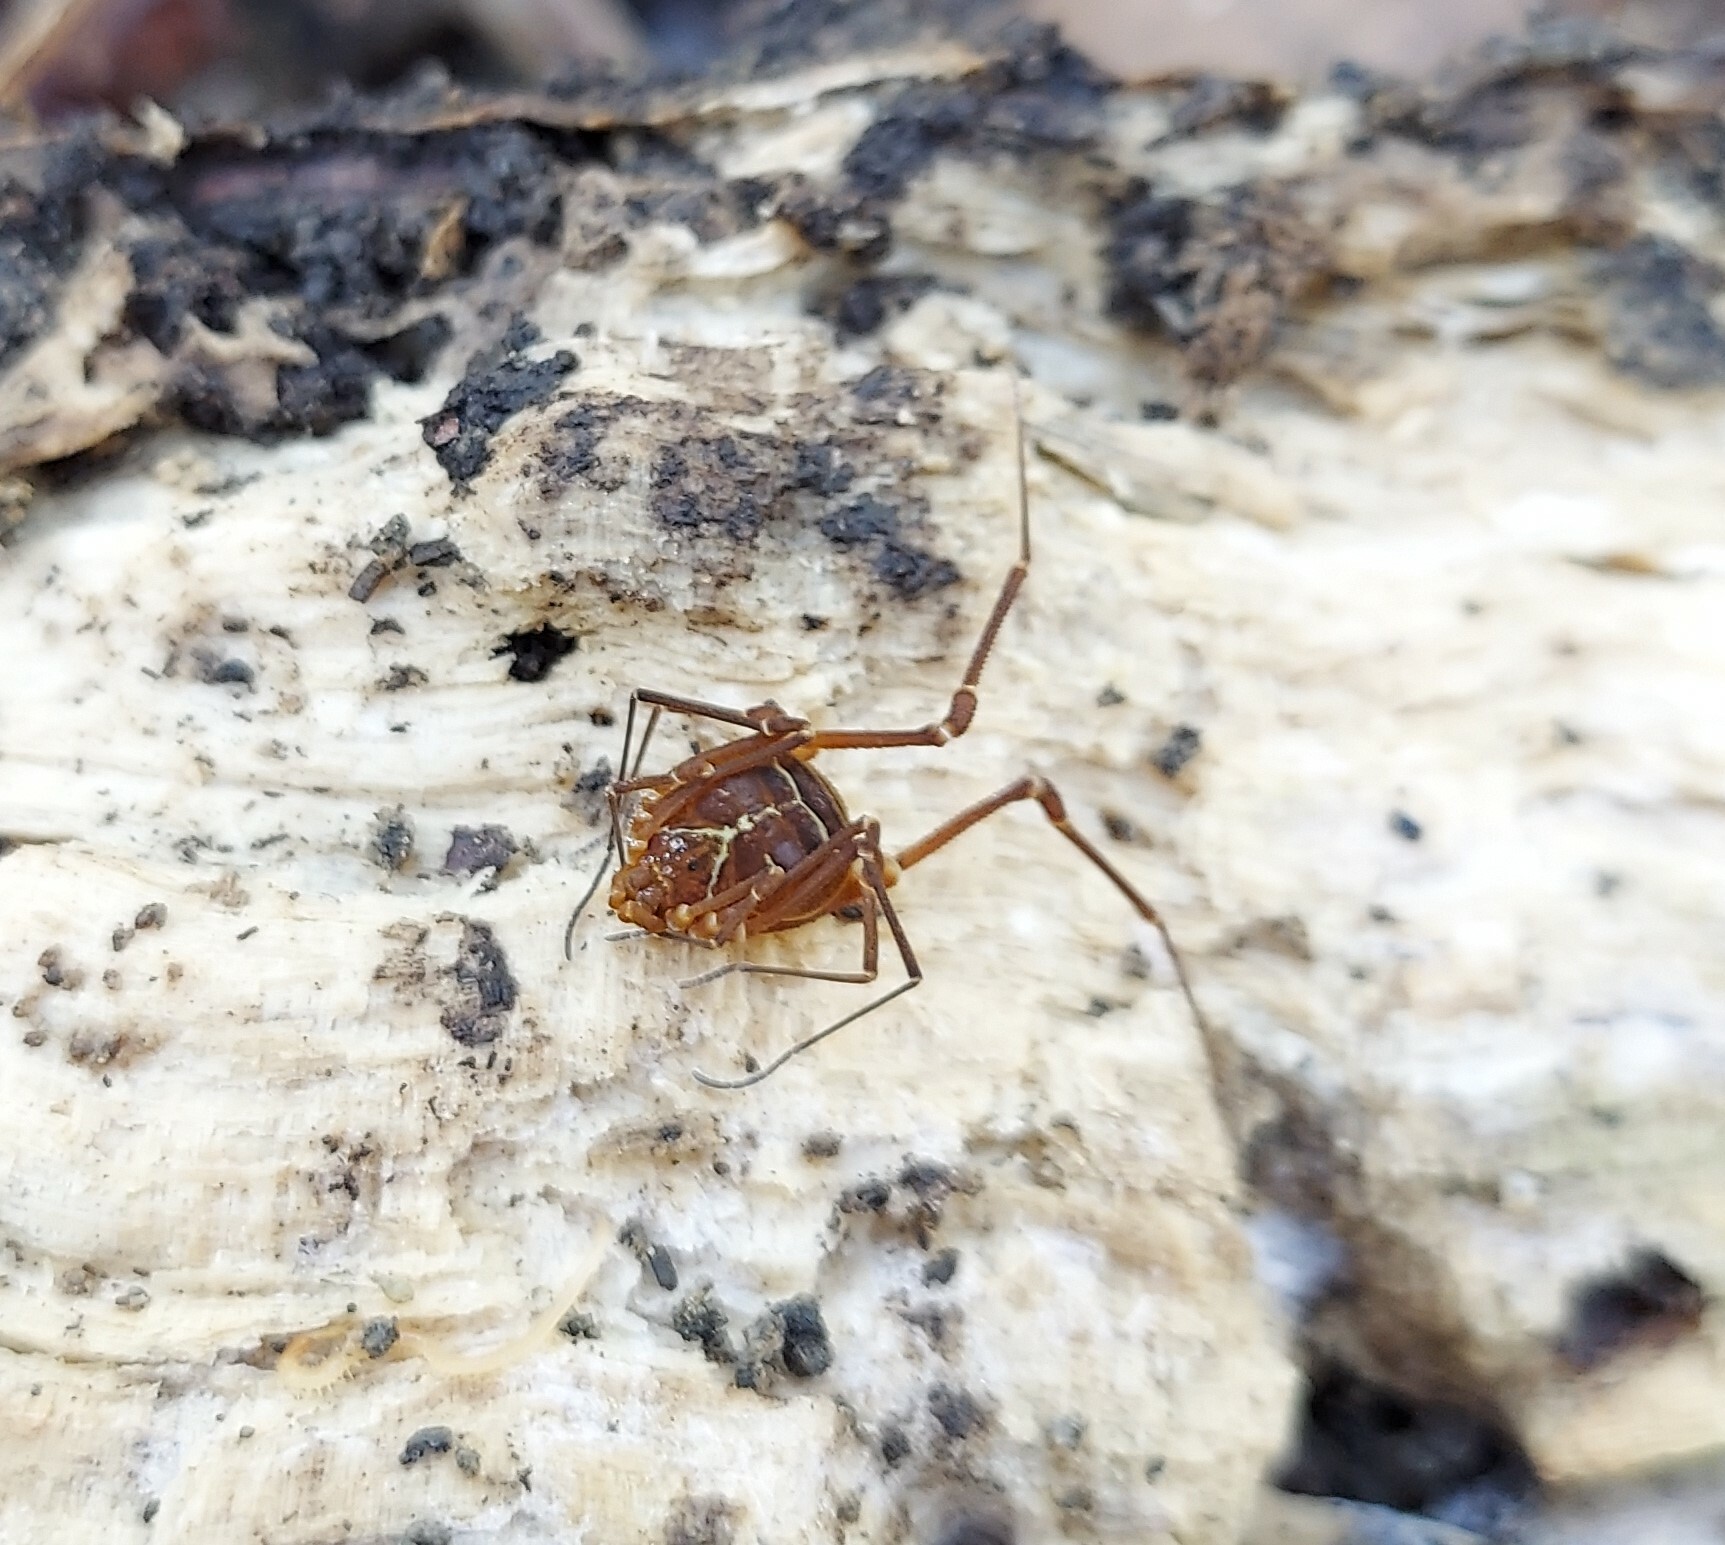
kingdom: Animalia
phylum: Arthropoda
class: Arachnida
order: Opiliones
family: Cosmetidae
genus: Libitioides
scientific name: Libitioides sayi
